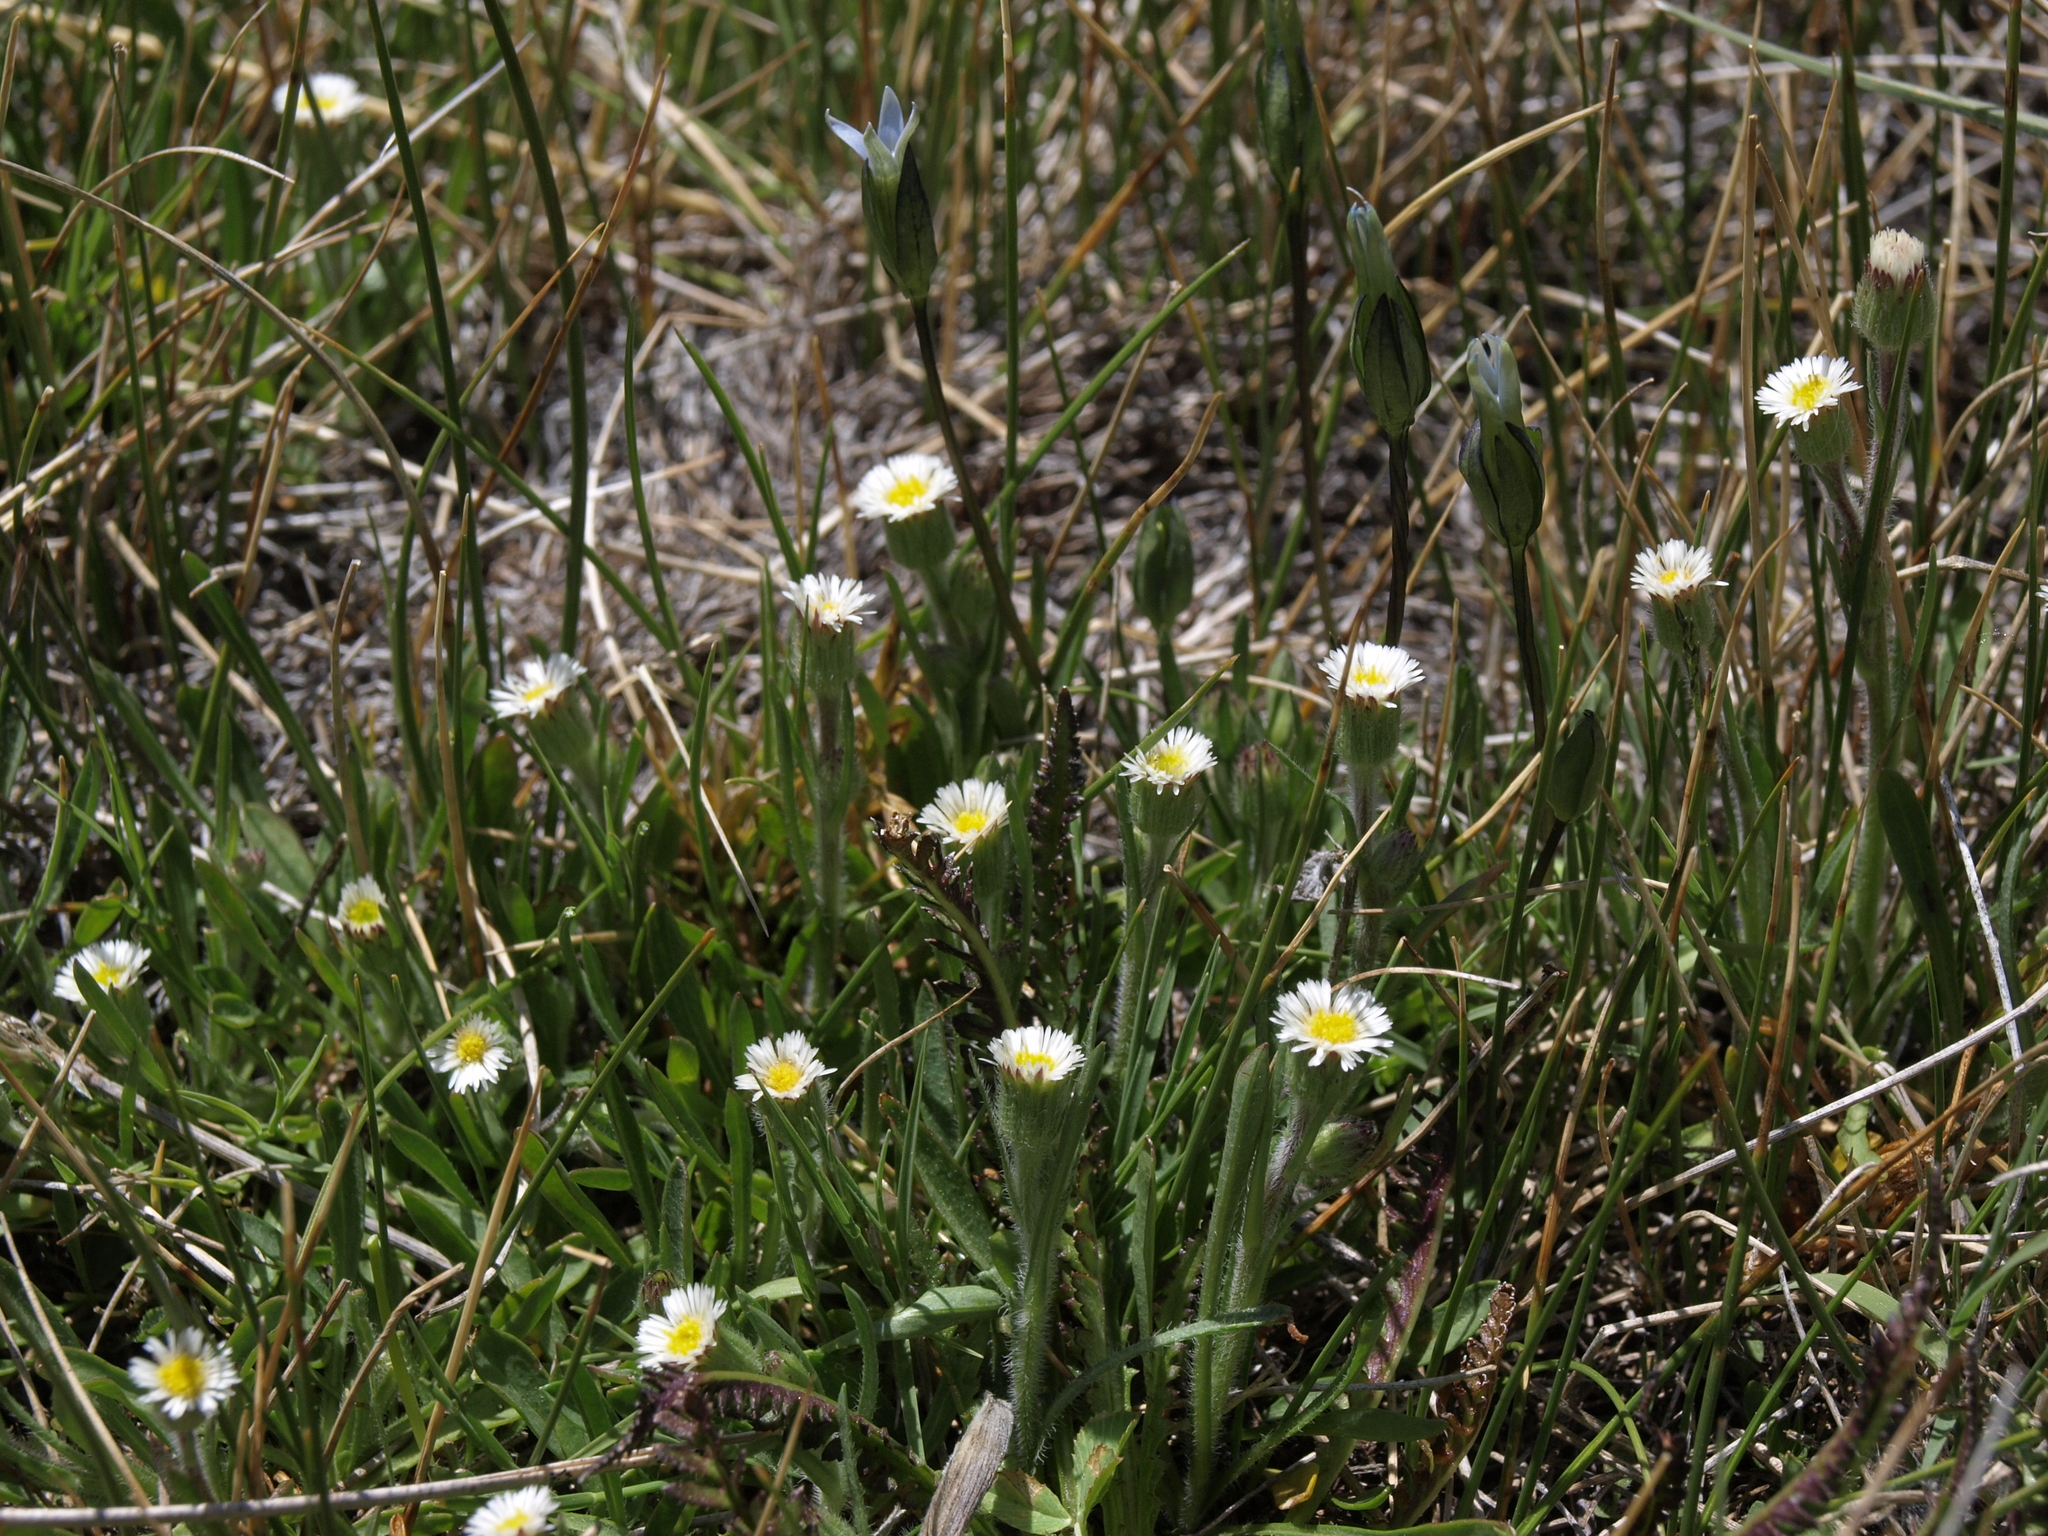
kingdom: Plantae
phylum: Tracheophyta
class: Magnoliopsida
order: Asterales
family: Asteraceae
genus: Erigeron
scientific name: Erigeron lonchophyllus
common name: Short-ray fleabane
